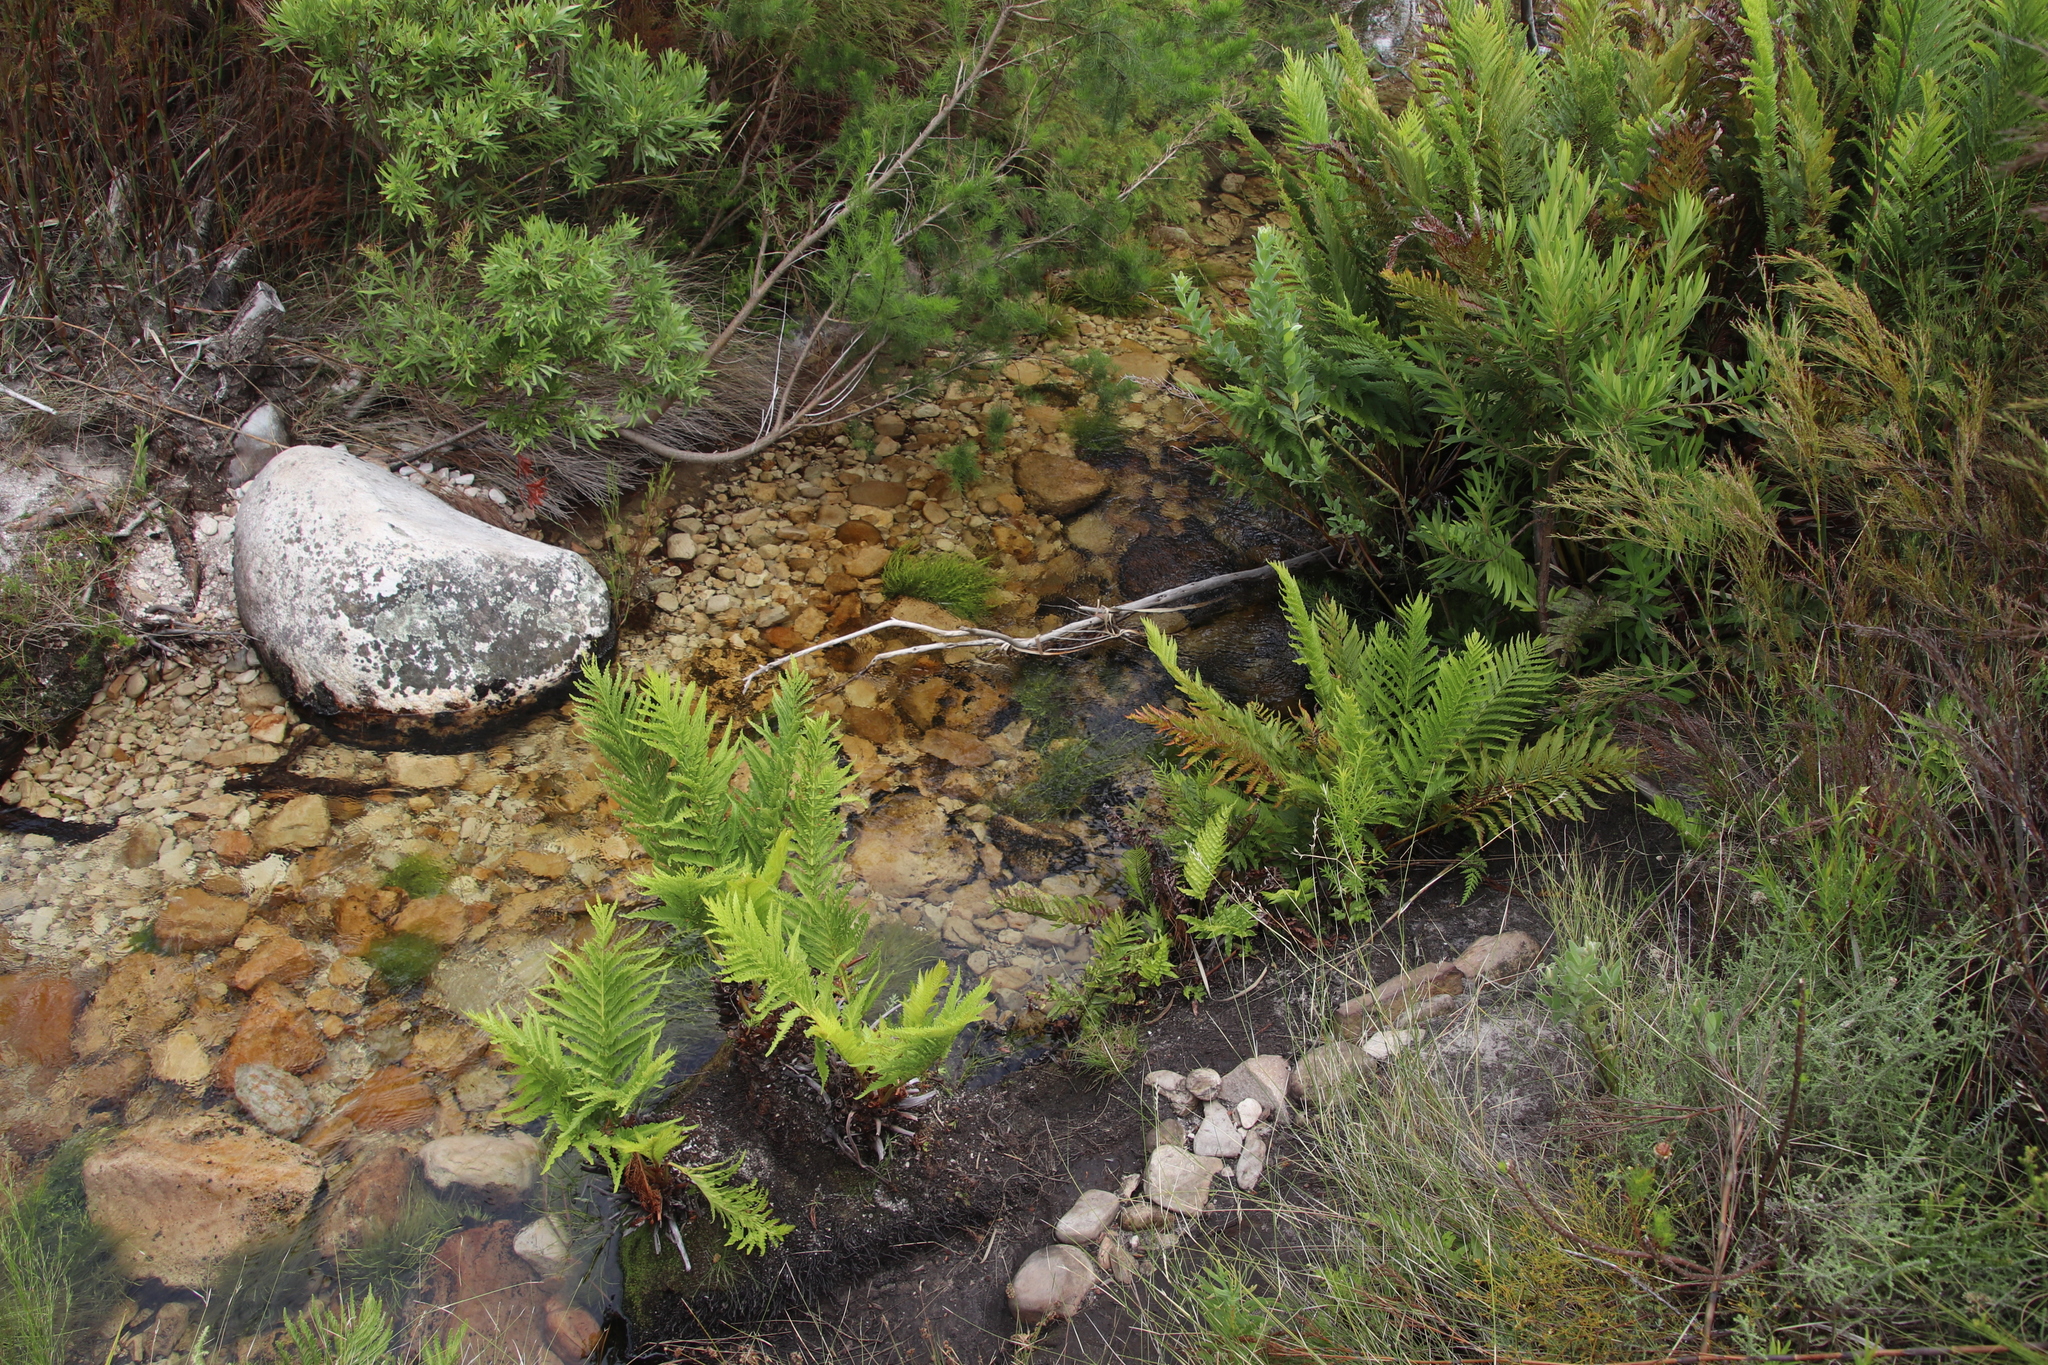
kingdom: Plantae
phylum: Tracheophyta
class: Polypodiopsida
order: Osmundales
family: Osmundaceae
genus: Todea
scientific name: Todea barbara
